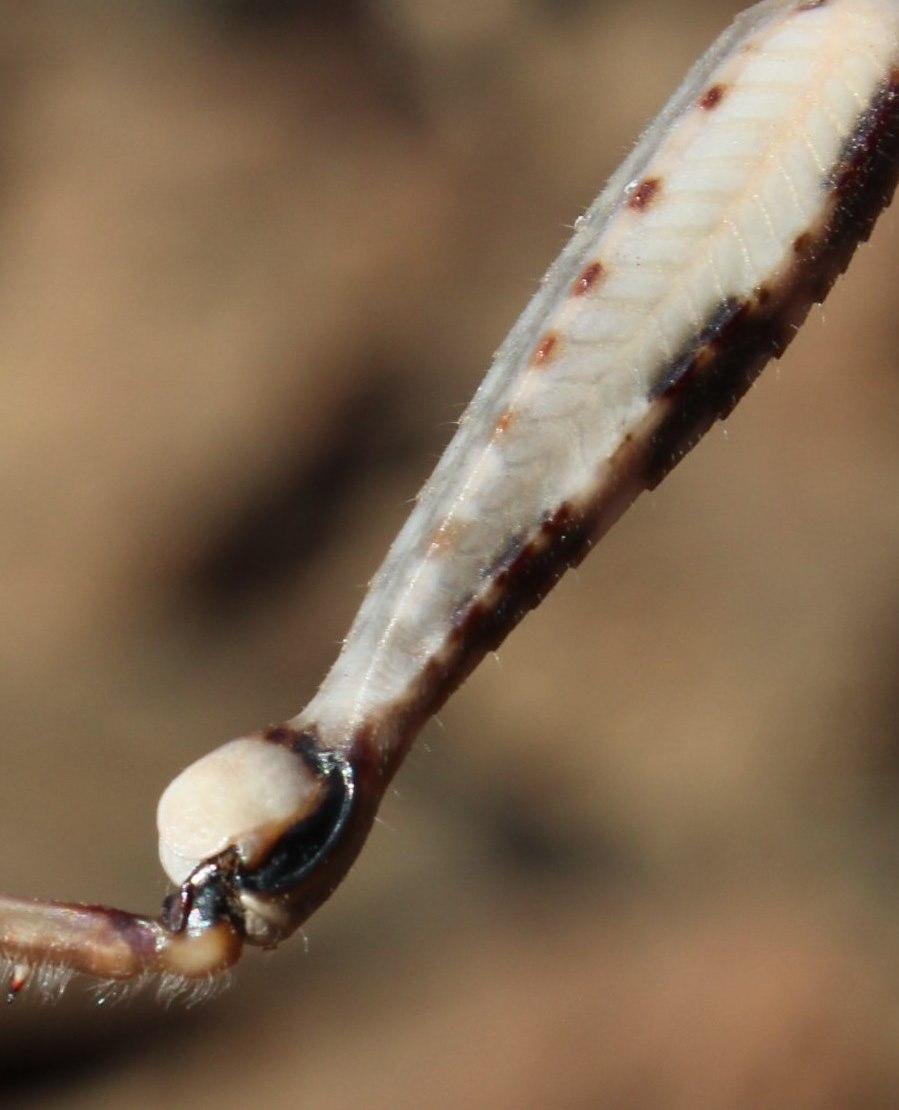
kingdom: Animalia
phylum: Arthropoda
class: Insecta
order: Orthoptera
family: Acrididae
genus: Anacridium
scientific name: Anacridium moestum
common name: Tree locust
